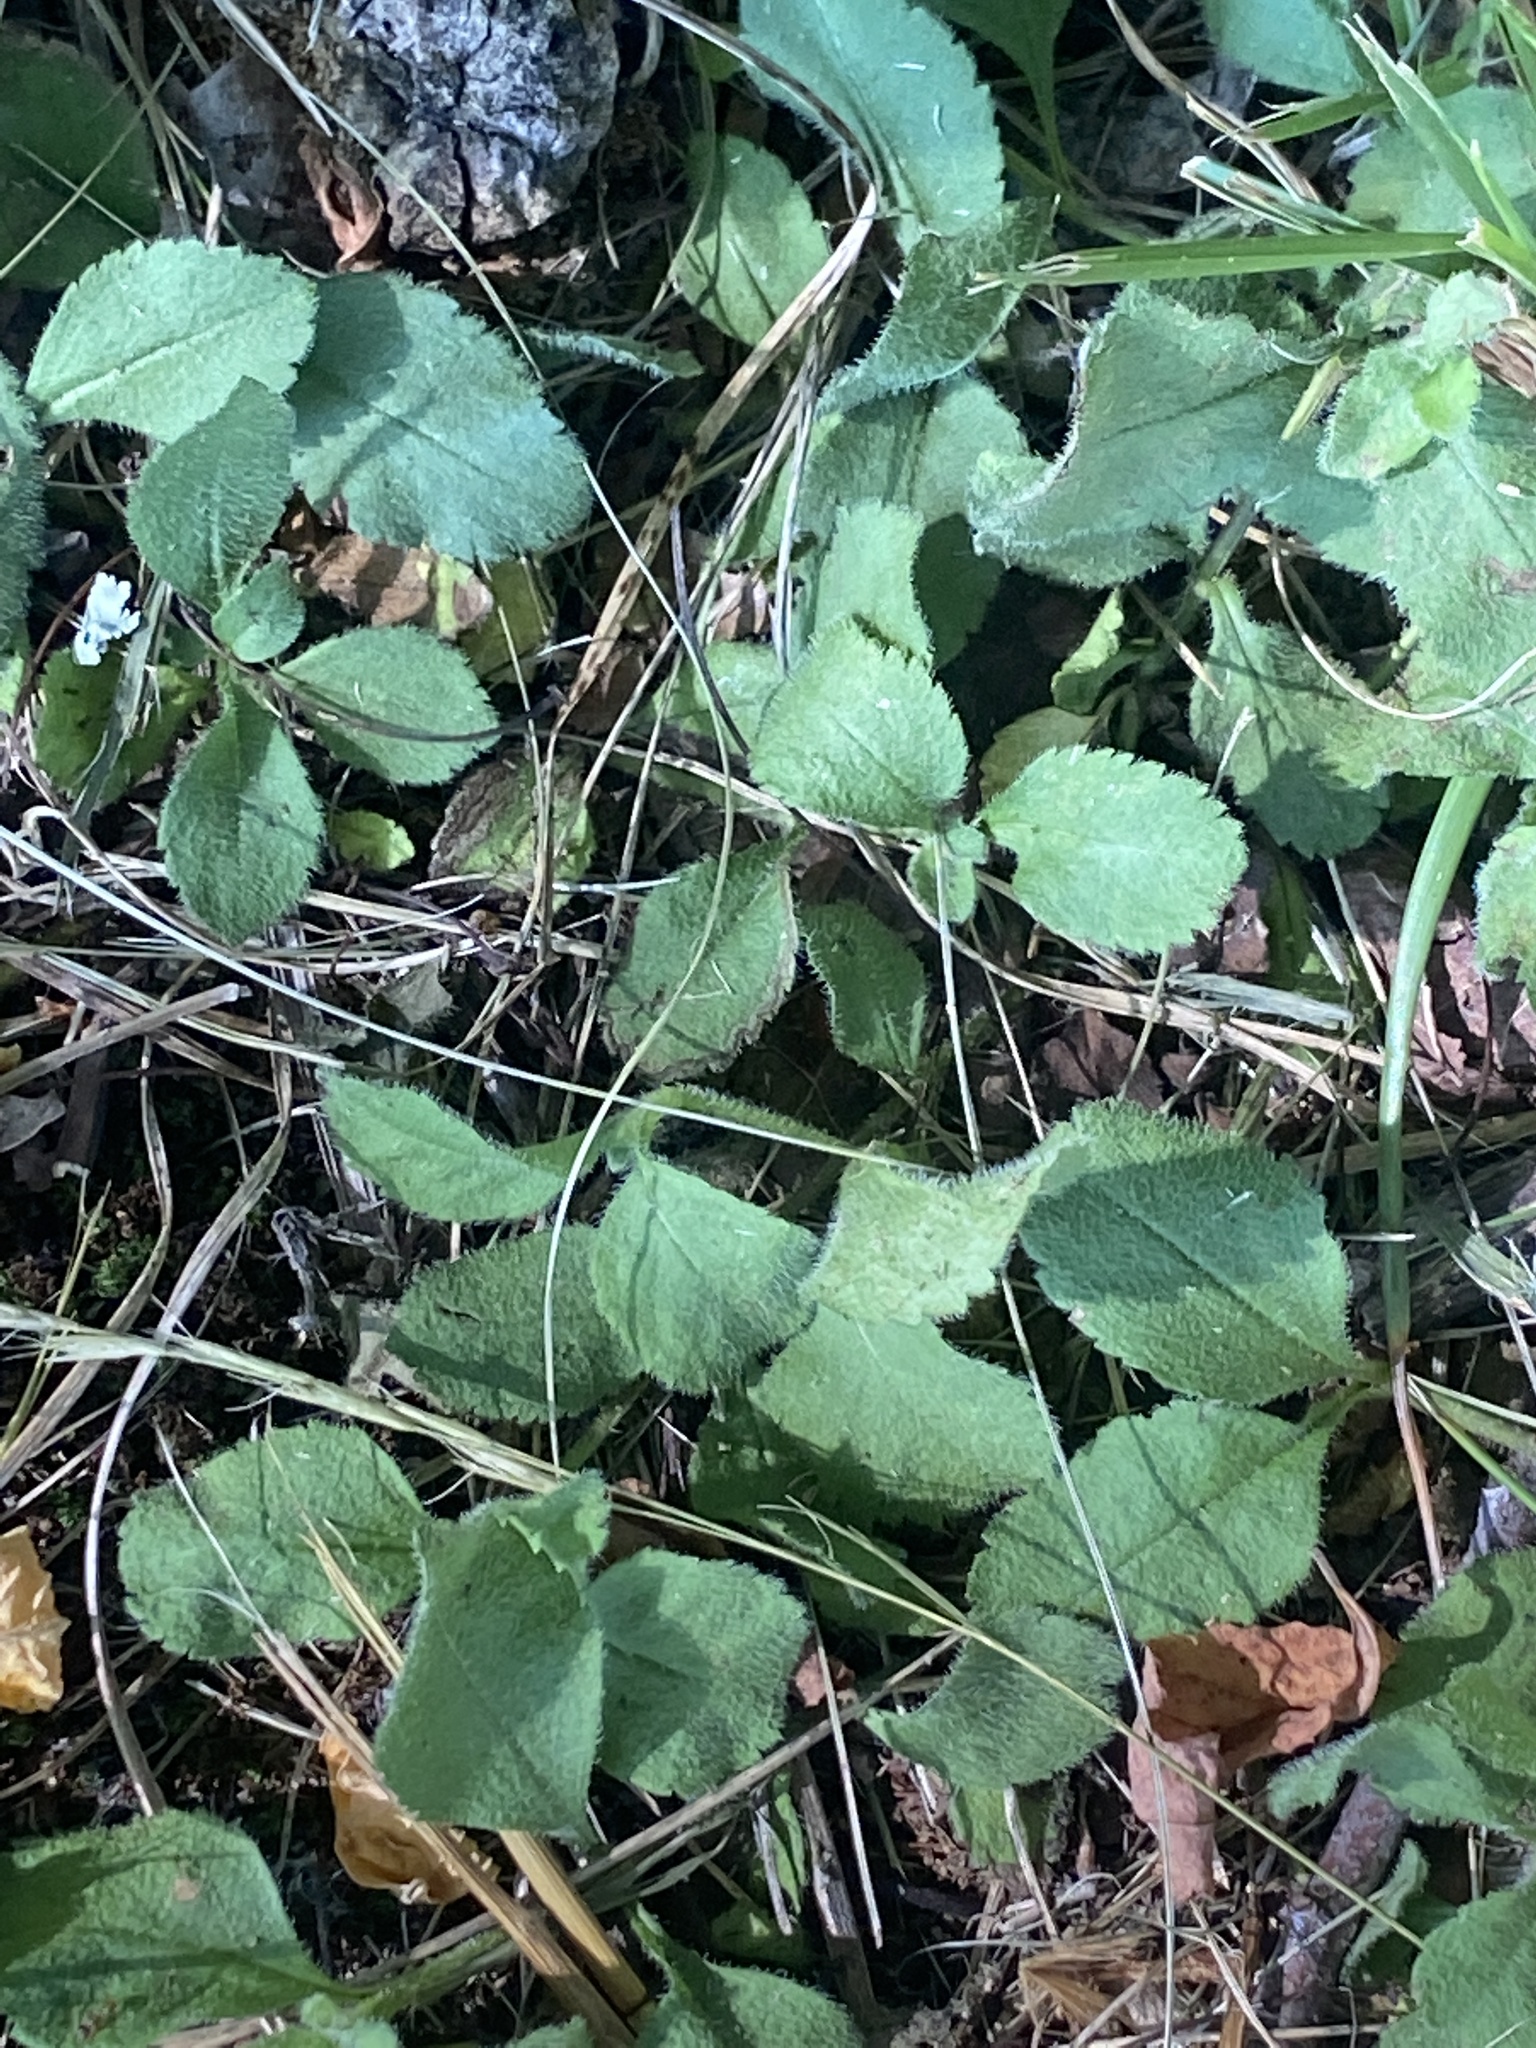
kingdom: Plantae
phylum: Tracheophyta
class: Magnoliopsida
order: Lamiales
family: Plantaginaceae
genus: Veronica
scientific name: Veronica officinalis
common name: Common speedwell
